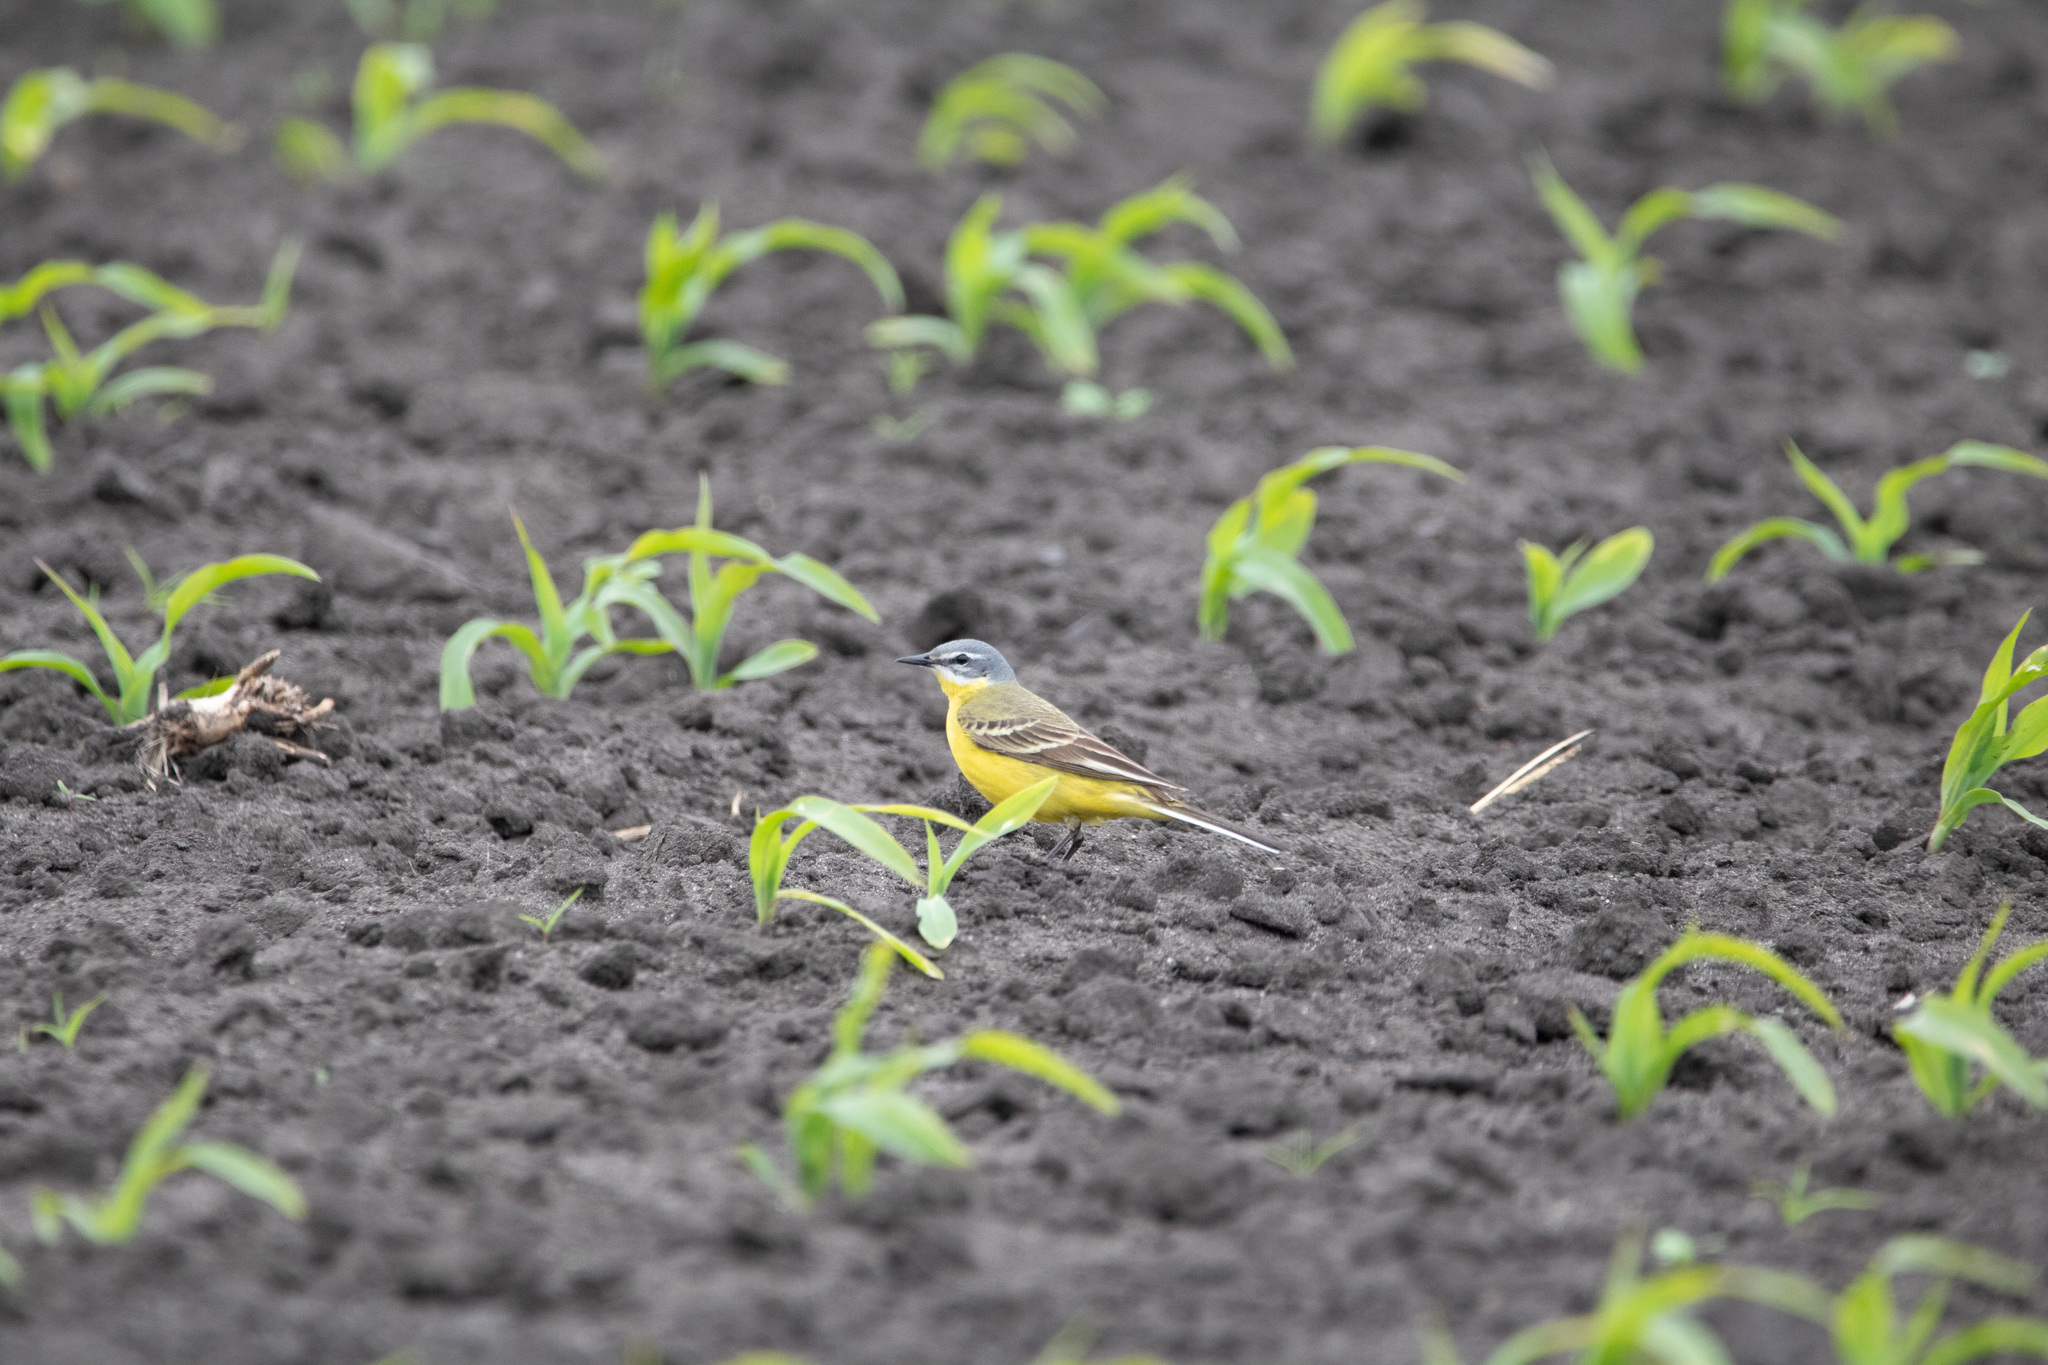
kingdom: Animalia
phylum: Chordata
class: Aves
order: Passeriformes
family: Motacillidae
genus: Motacilla
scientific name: Motacilla flava
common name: Western yellow wagtail
